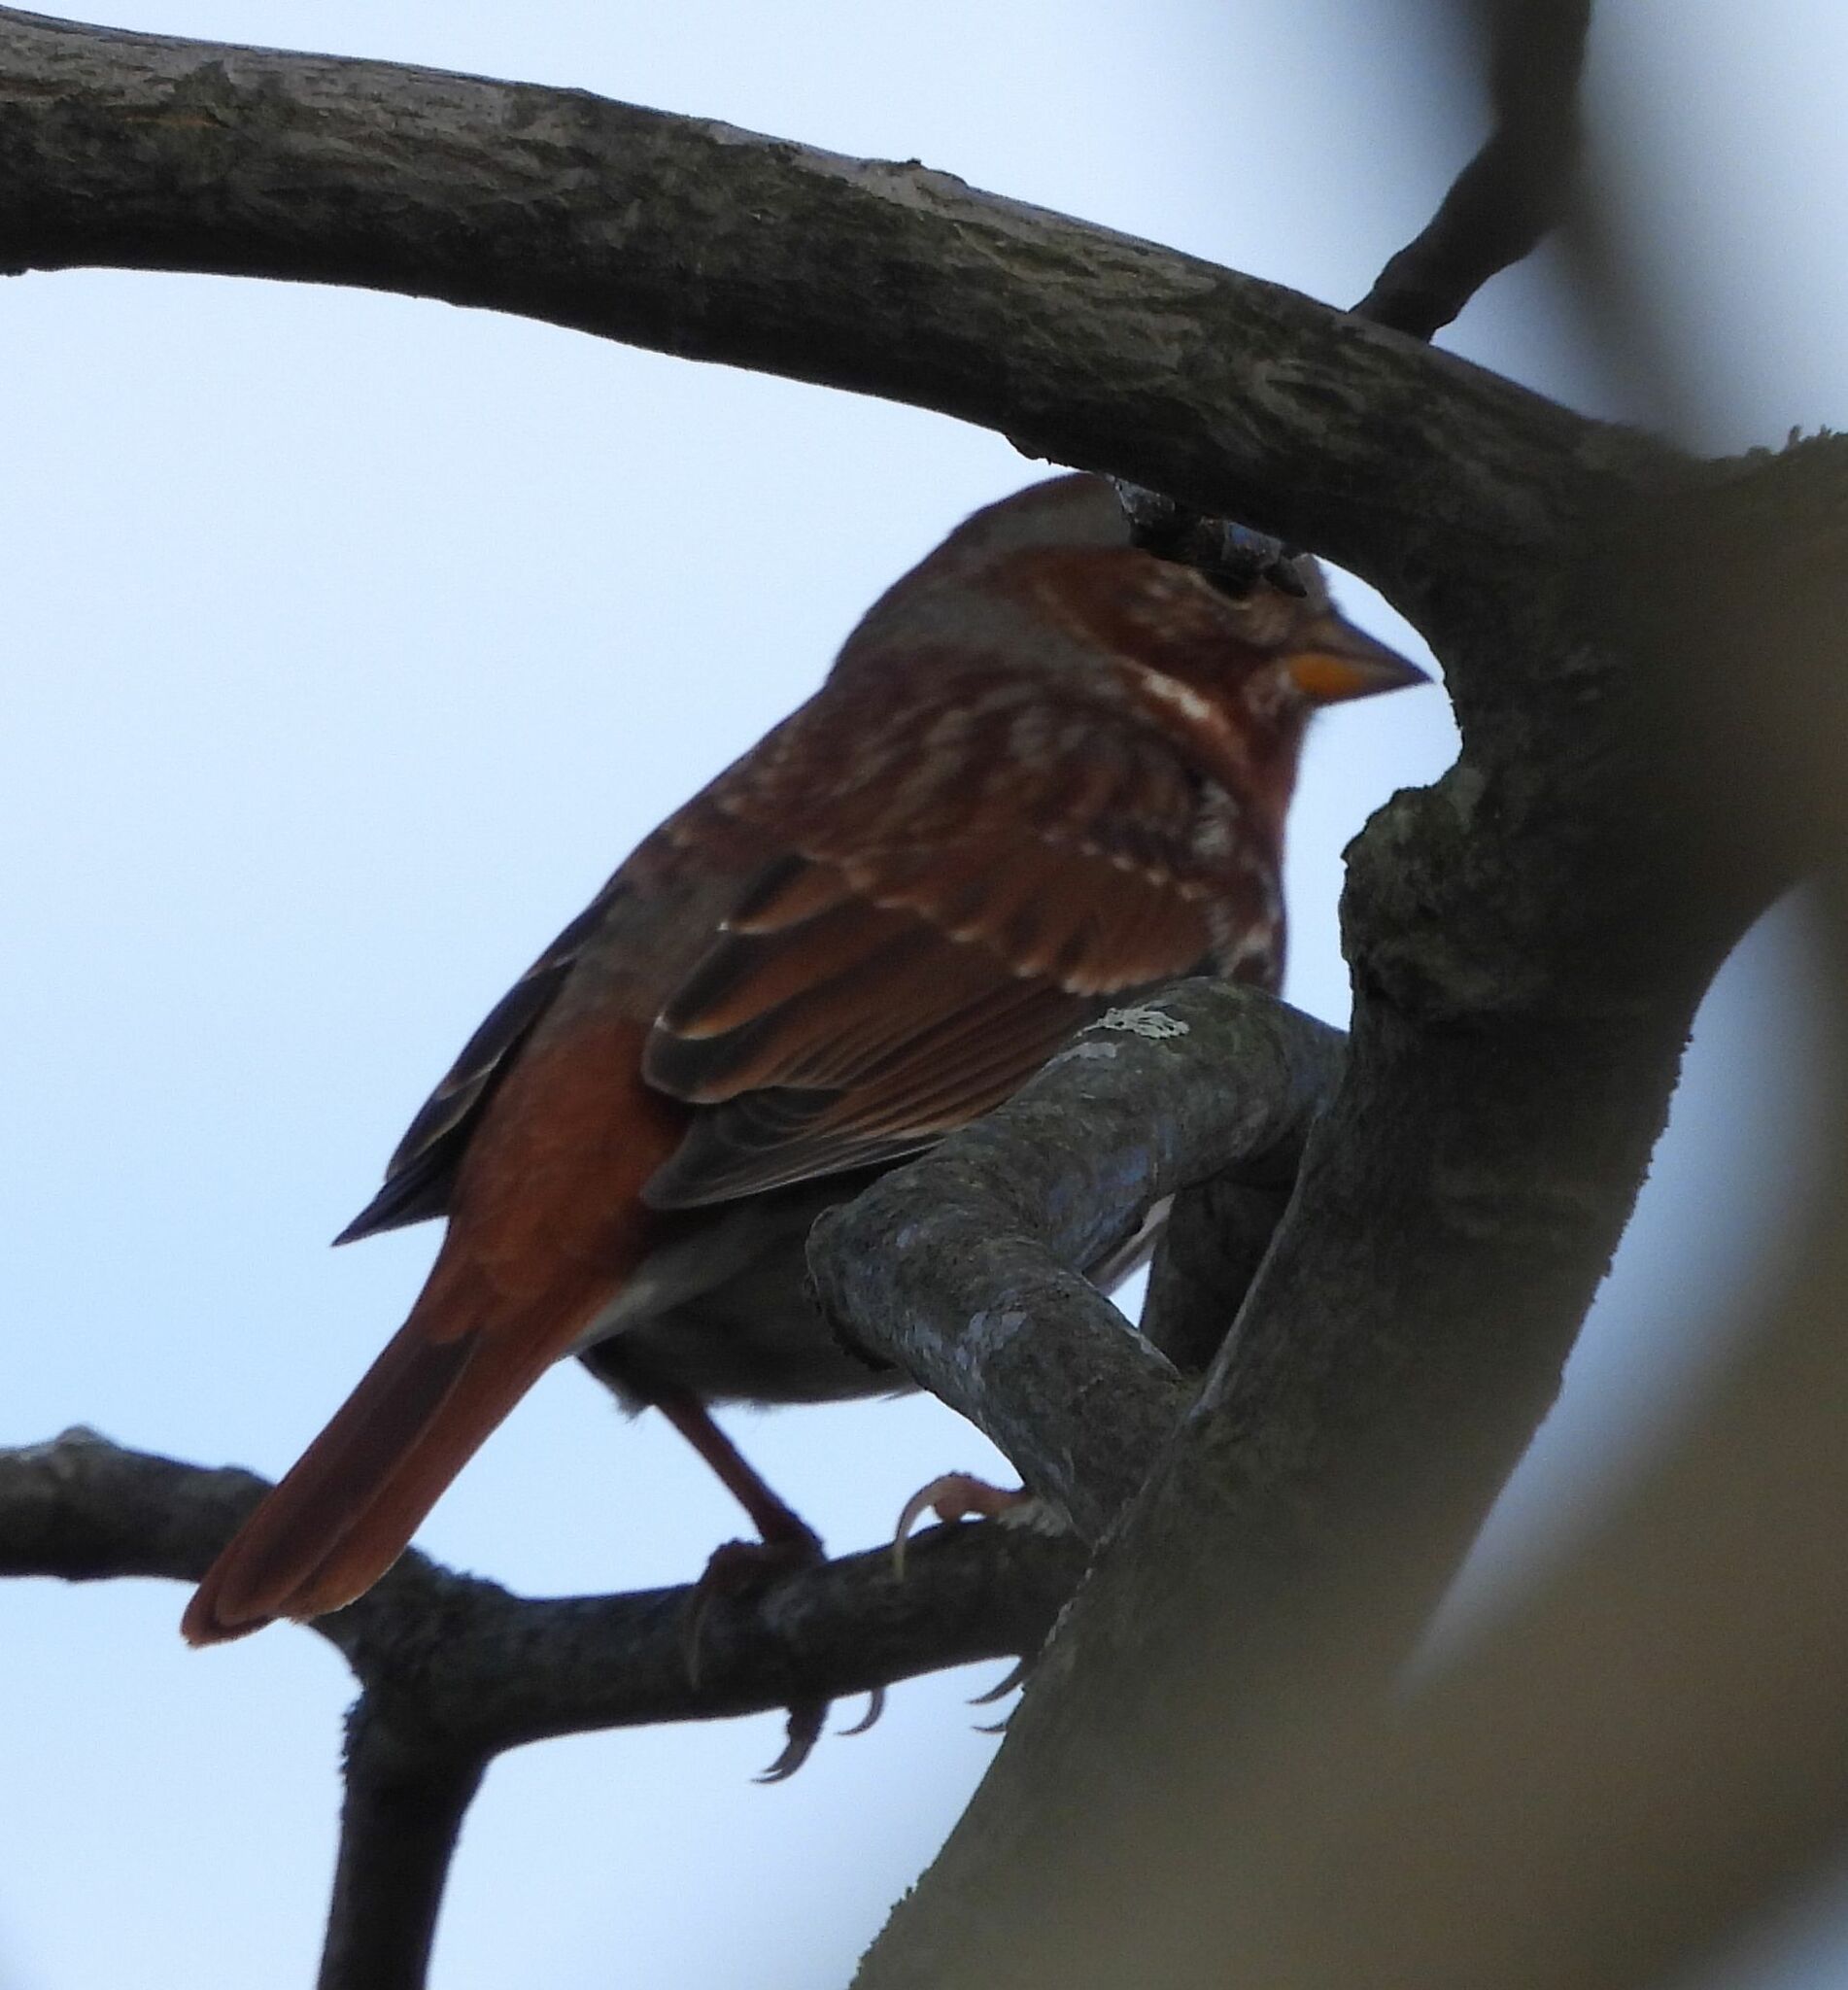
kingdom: Animalia
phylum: Chordata
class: Aves
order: Passeriformes
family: Passerellidae
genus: Passerella
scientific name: Passerella iliaca
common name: Fox sparrow
